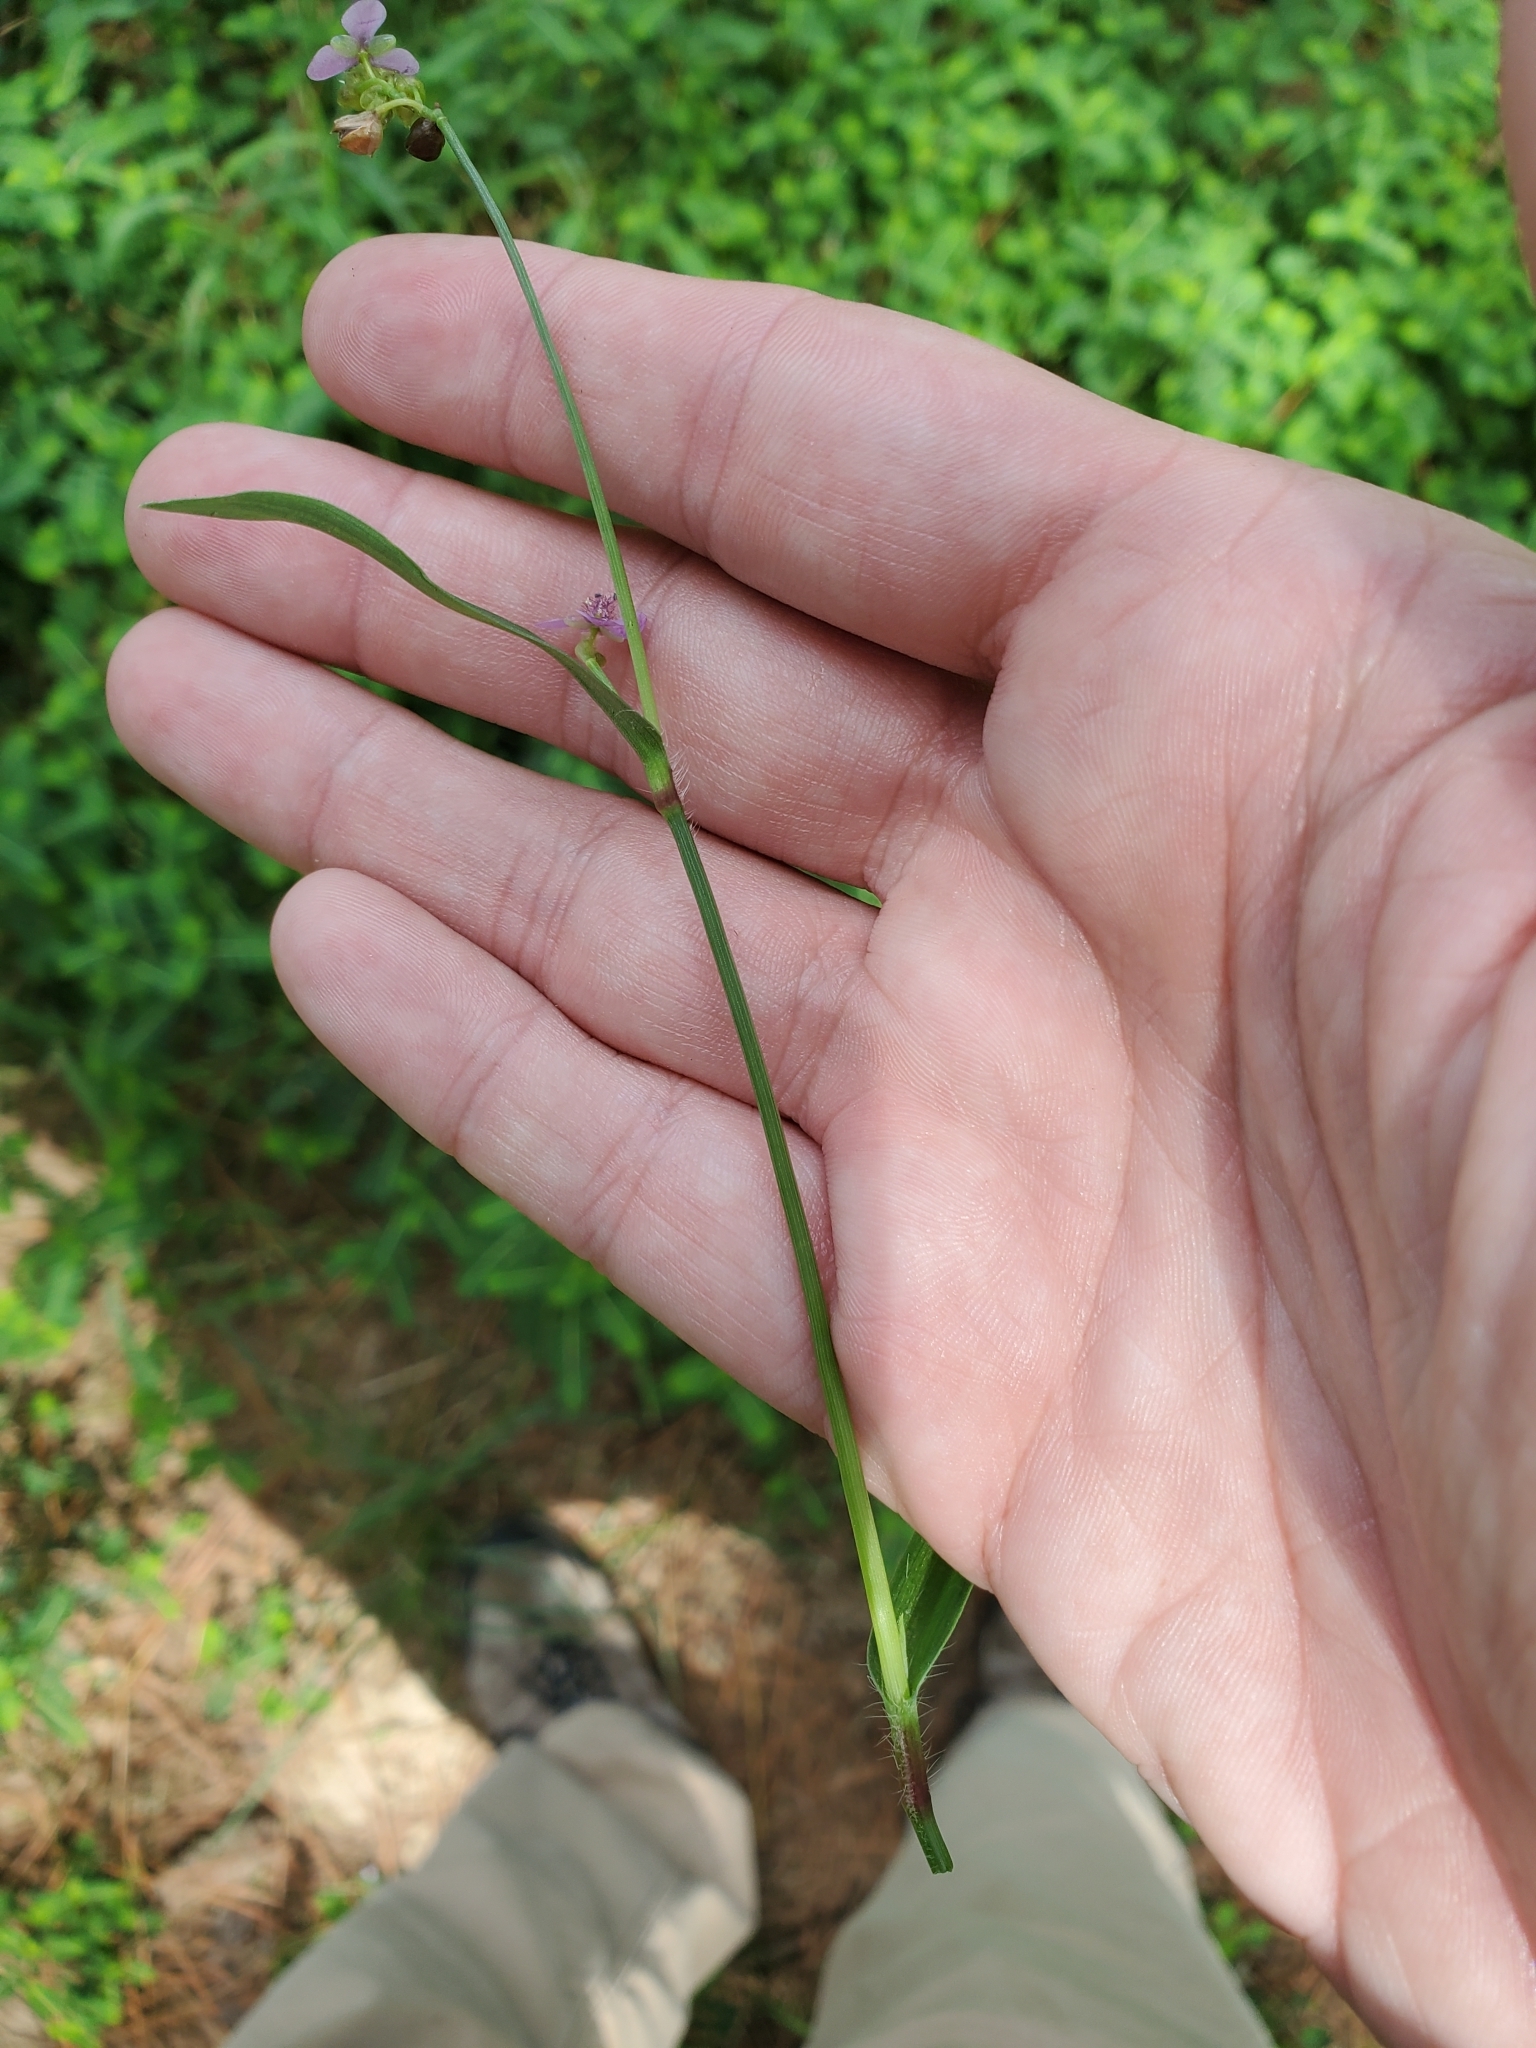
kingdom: Plantae
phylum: Tracheophyta
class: Liliopsida
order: Commelinales
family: Commelinaceae
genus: Murdannia
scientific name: Murdannia nudiflora
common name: Nakedstem dewflower
